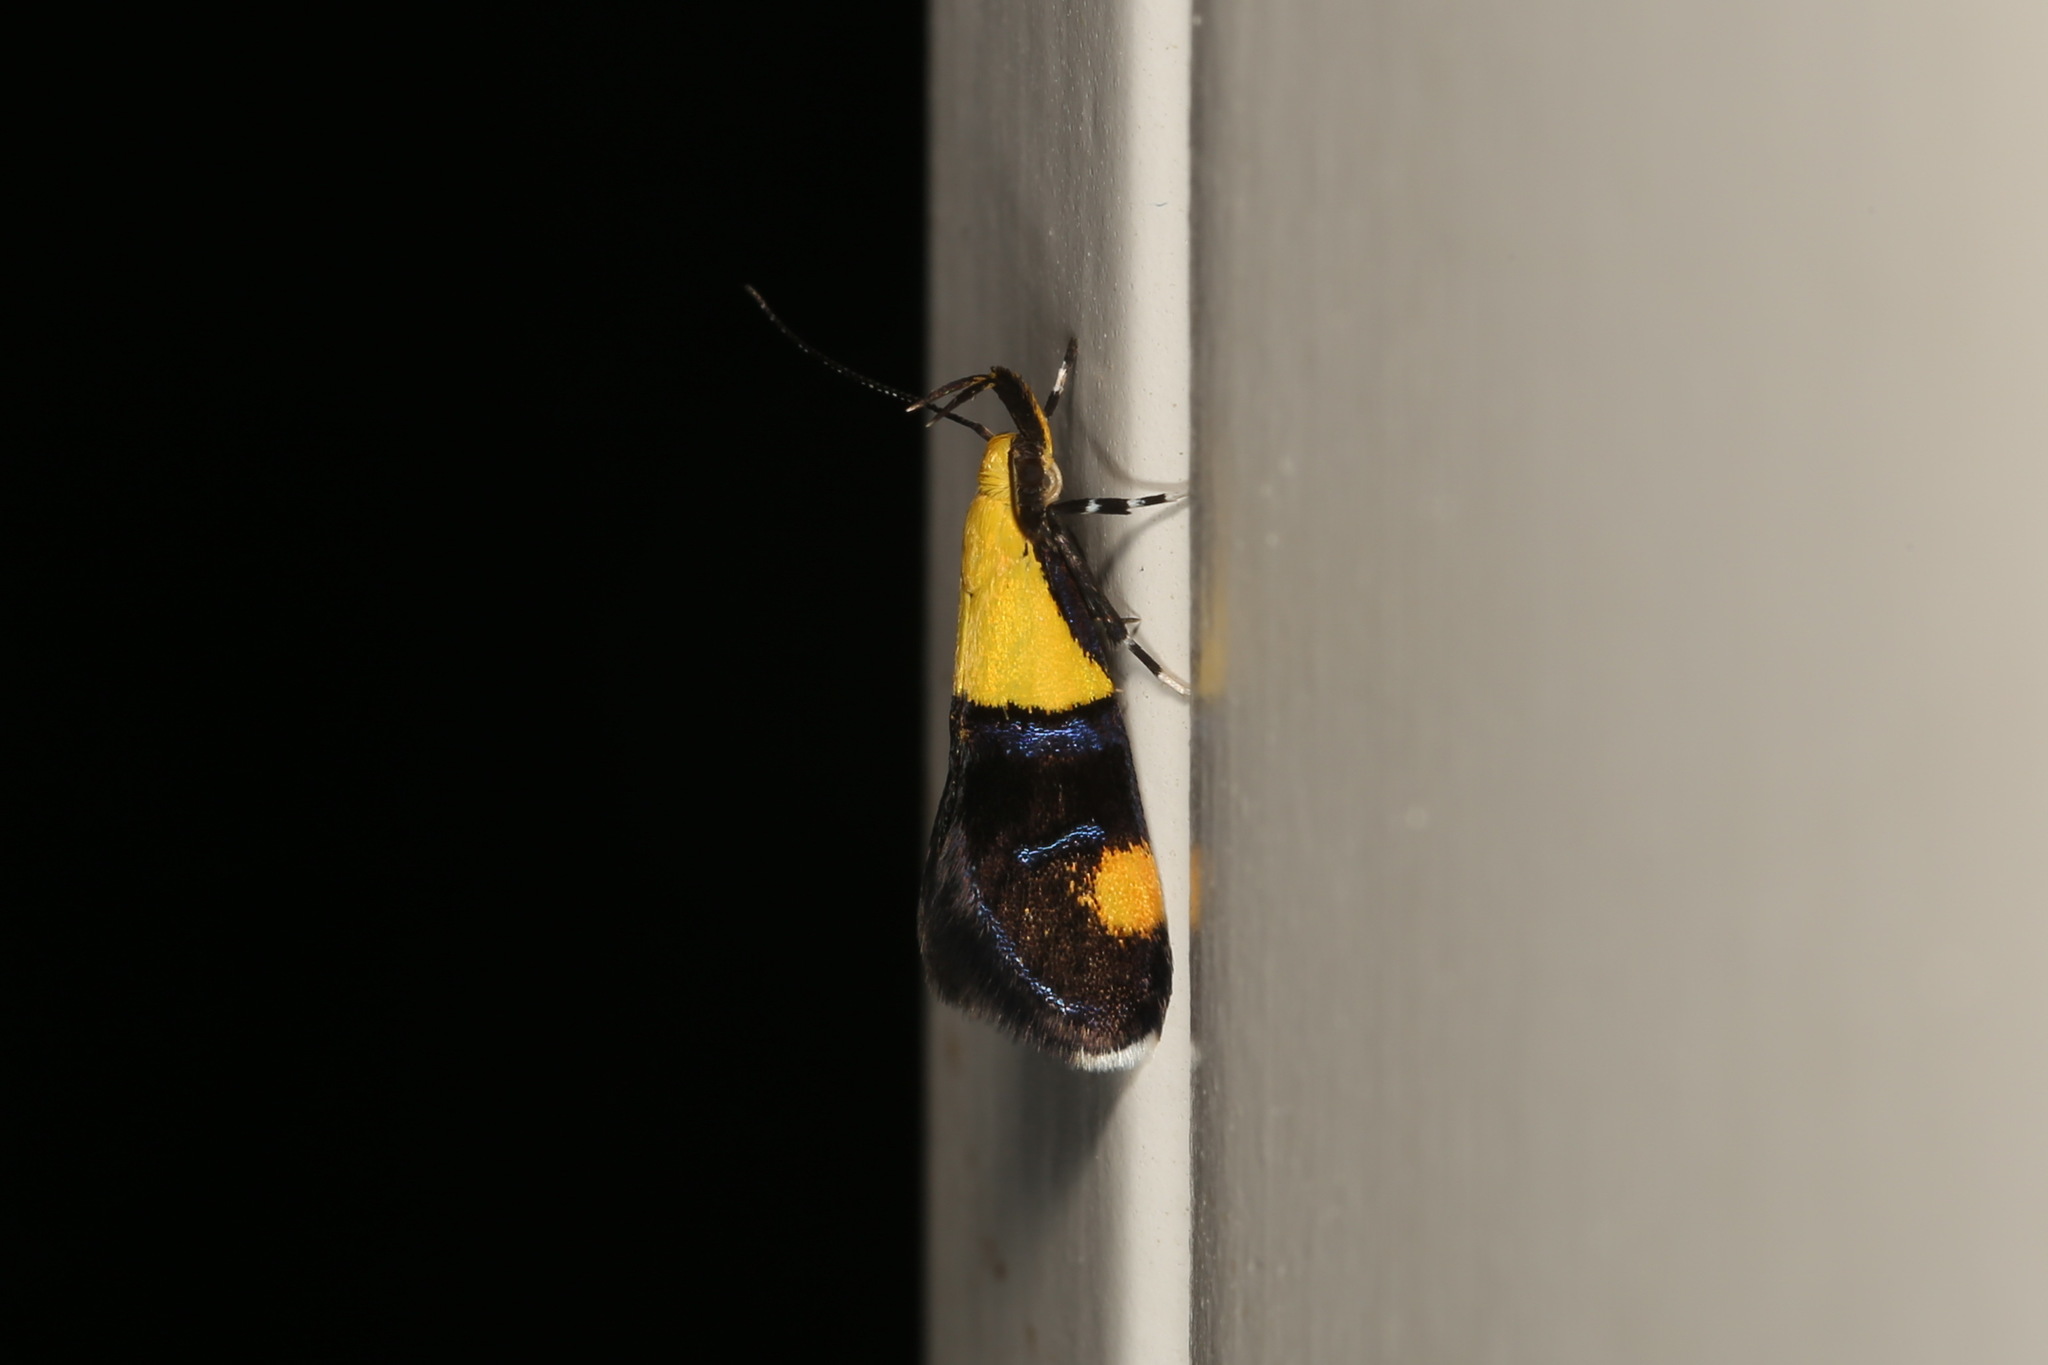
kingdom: Animalia
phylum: Arthropoda
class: Insecta
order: Lepidoptera
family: Oecophoridae
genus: Oecophora
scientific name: Oecophora bractella
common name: Gold-base tubic
